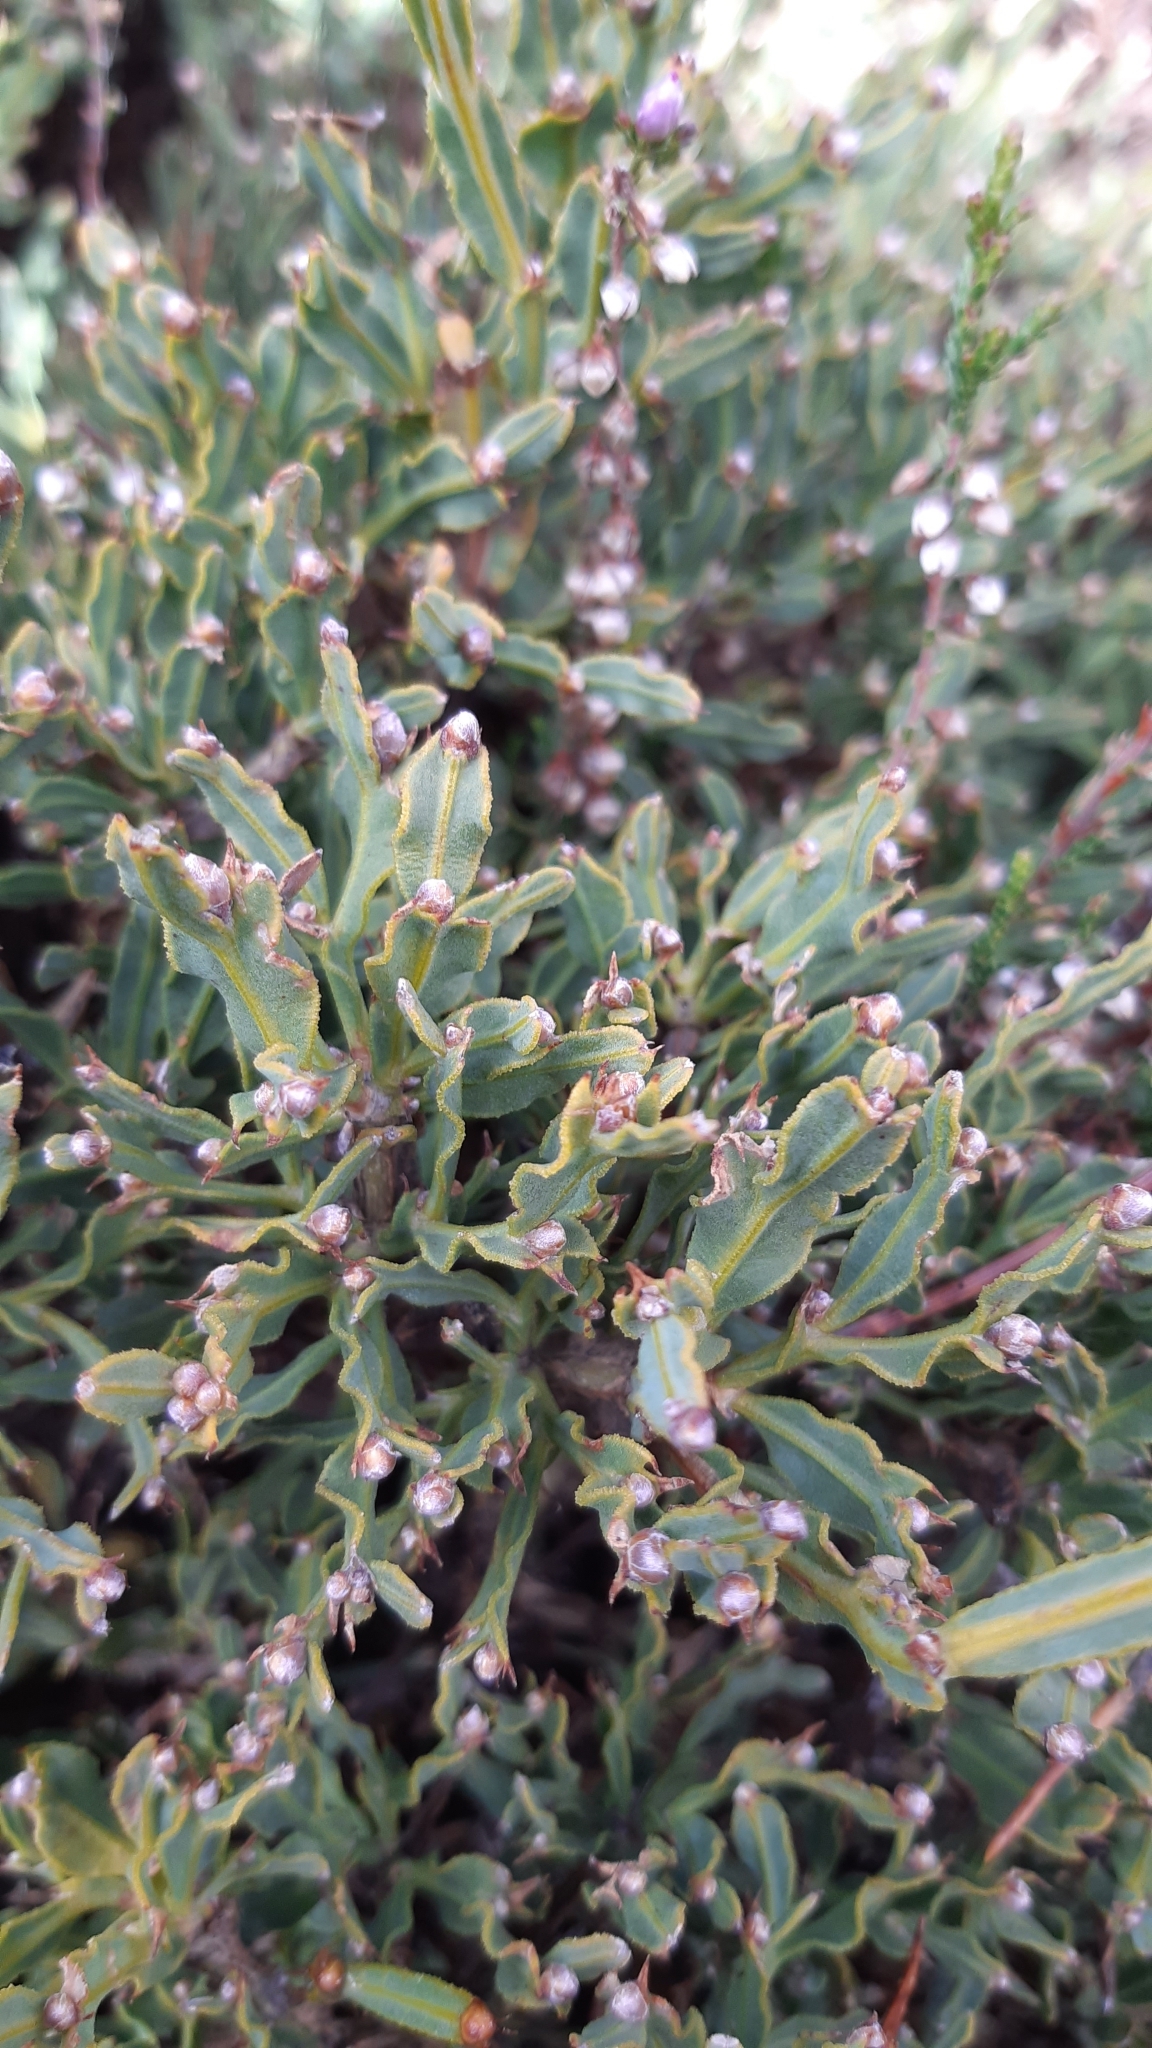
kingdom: Plantae
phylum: Tracheophyta
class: Magnoliopsida
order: Fabales
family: Fabaceae
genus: Genista
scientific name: Genista tridentata
